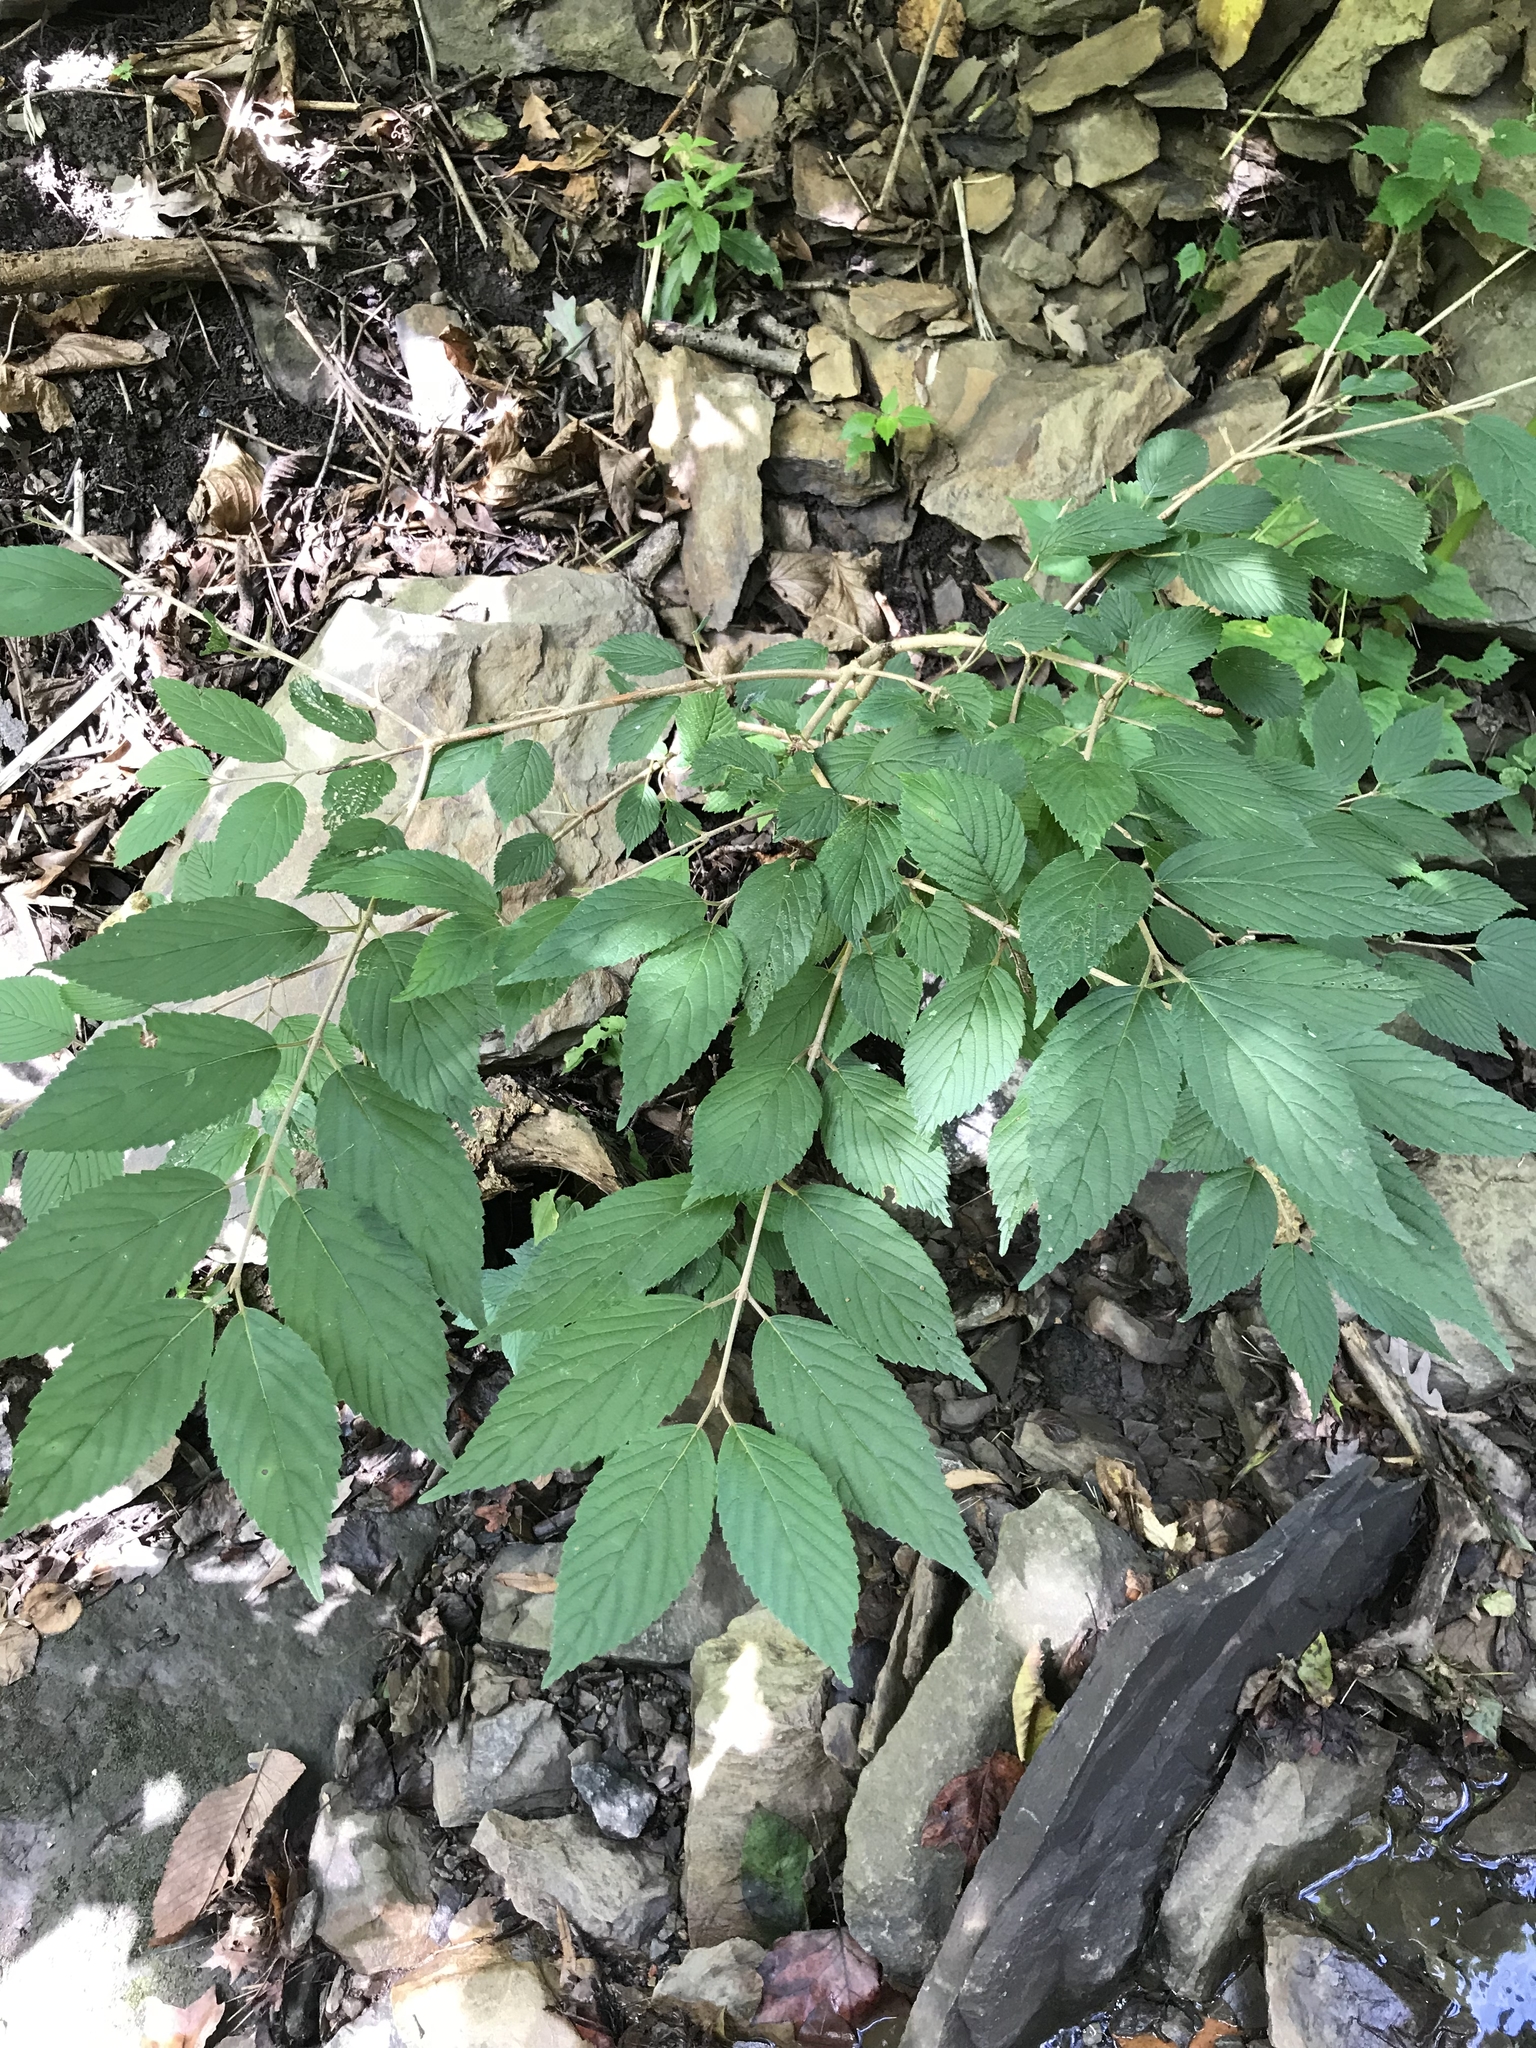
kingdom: Plantae
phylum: Tracheophyta
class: Magnoliopsida
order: Dipsacales
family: Viburnaceae
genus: Viburnum
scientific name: Viburnum plicatum
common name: Japanese snowball
